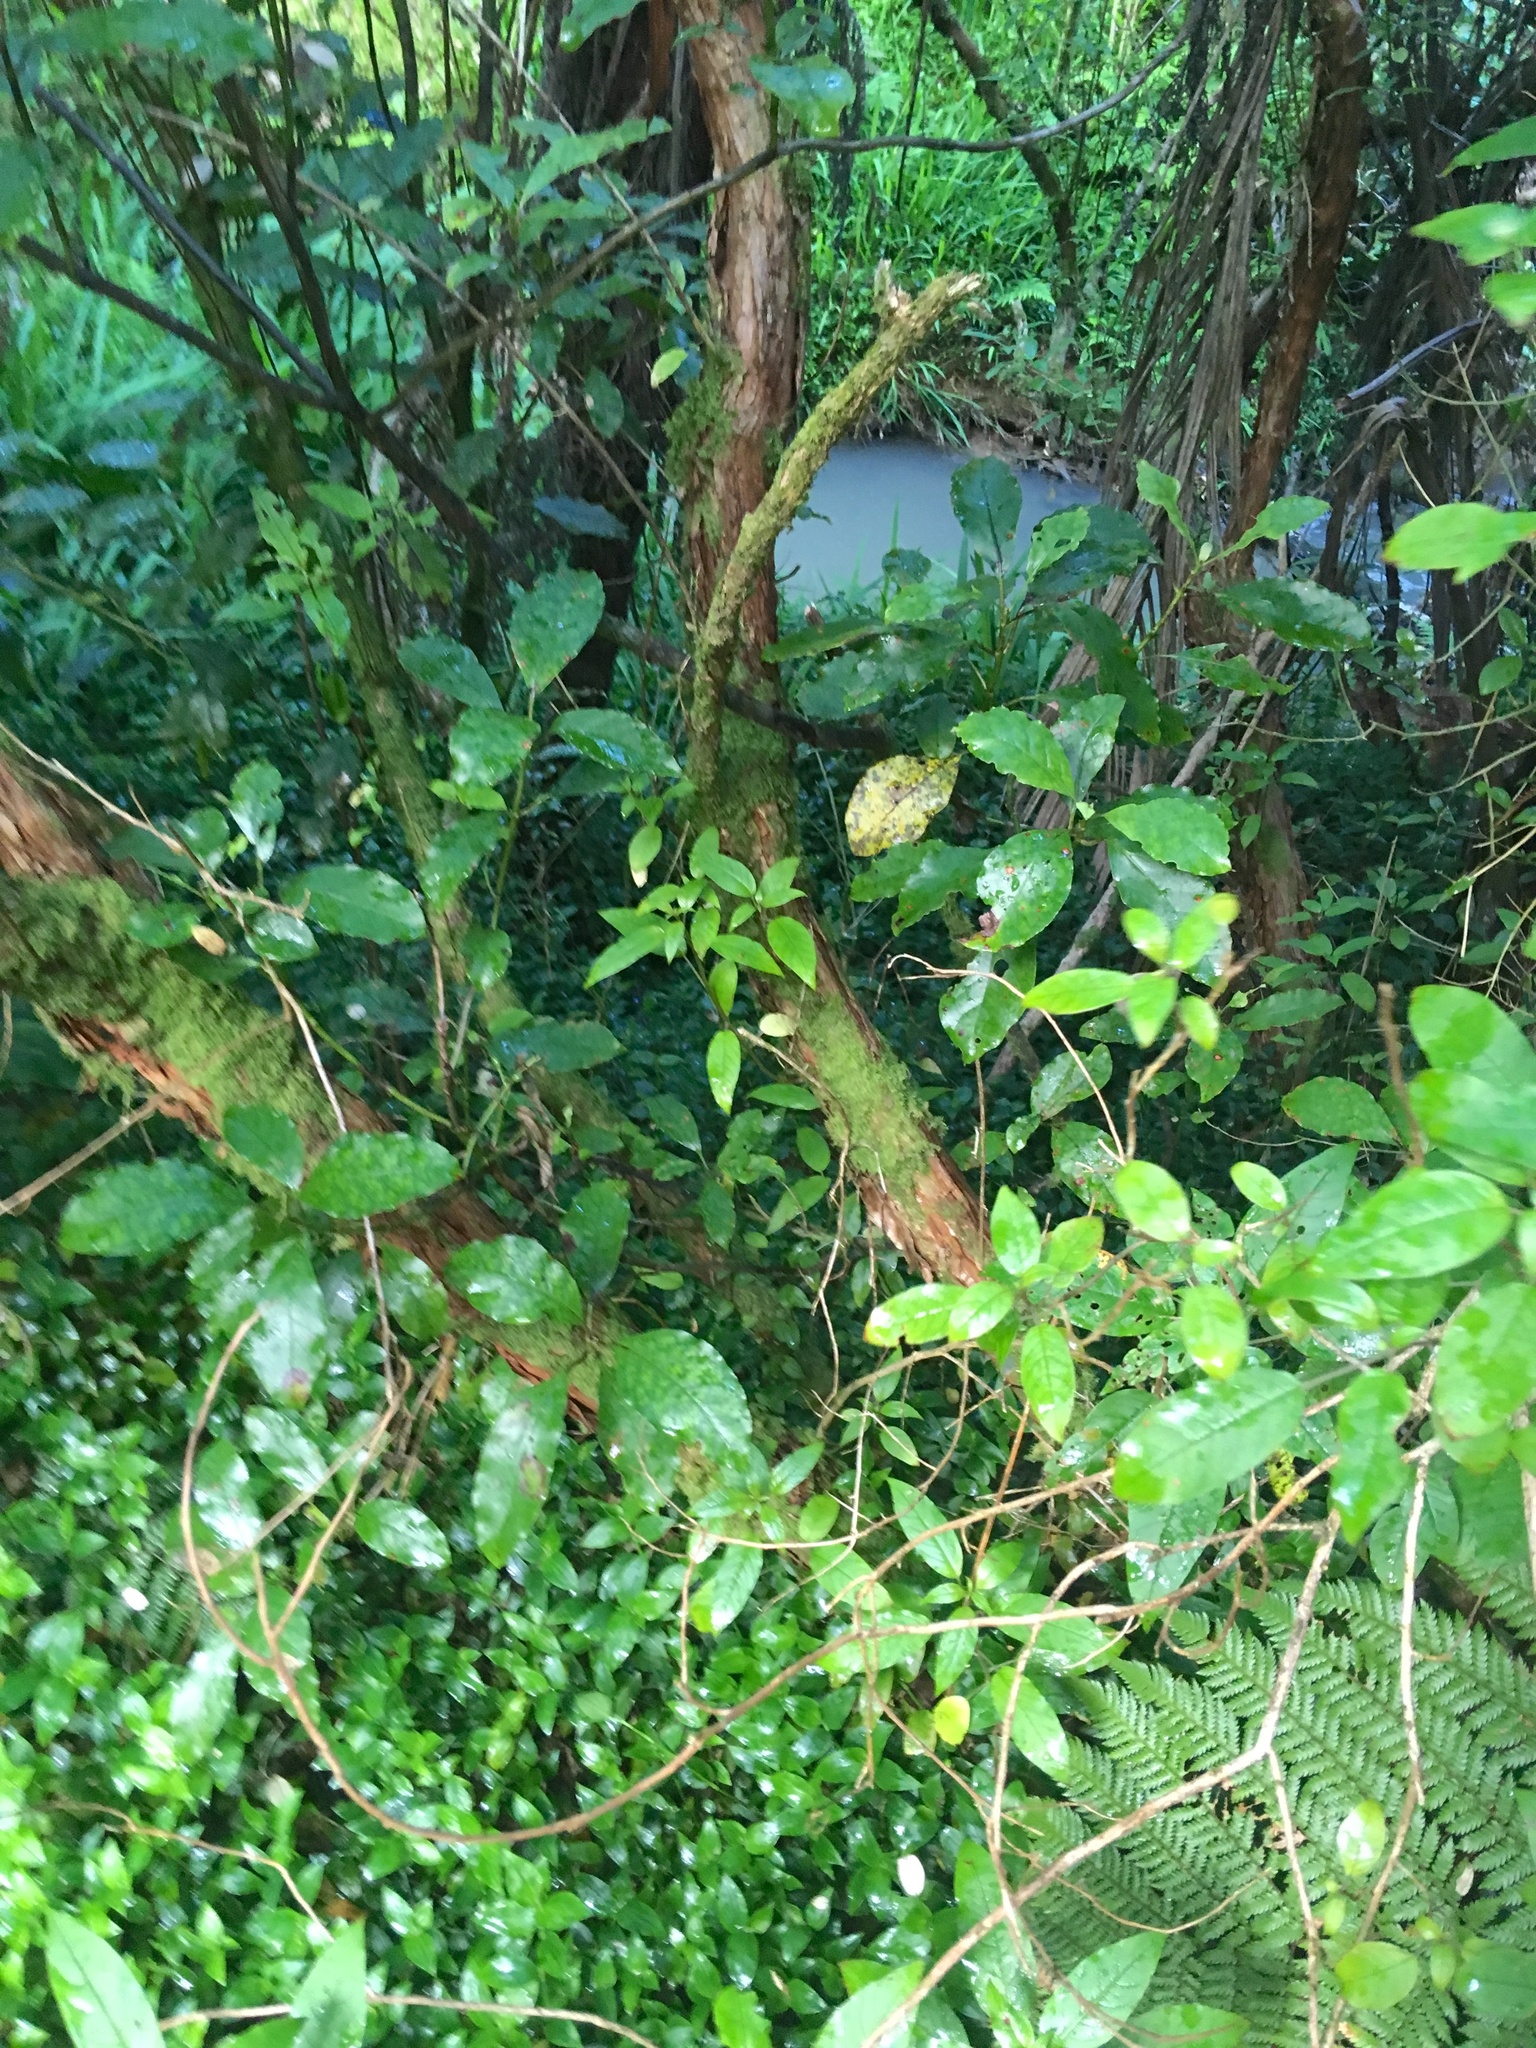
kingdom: Plantae
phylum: Tracheophyta
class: Magnoliopsida
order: Gentianales
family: Rubiaceae
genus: Coprosma
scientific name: Coprosma autumnalis
